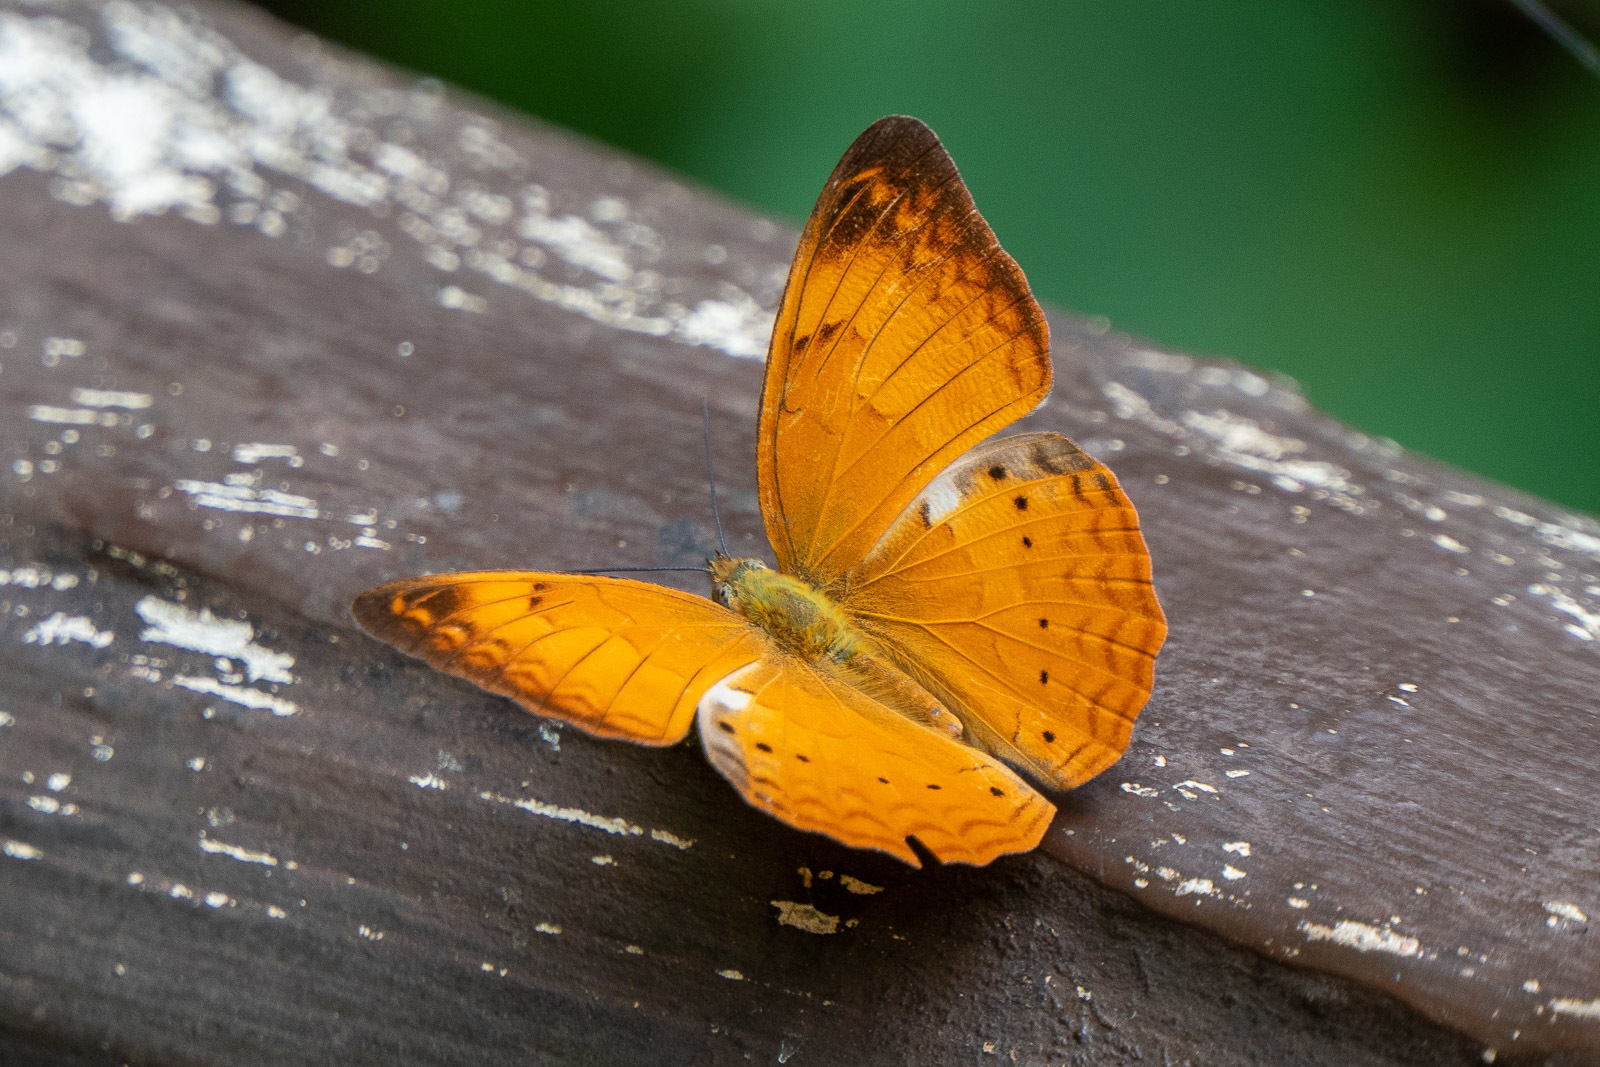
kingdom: Animalia
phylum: Arthropoda
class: Insecta
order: Lepidoptera
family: Nymphalidae
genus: Cirrochroa
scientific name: Cirrochroa thais
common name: Tamil yeoman
